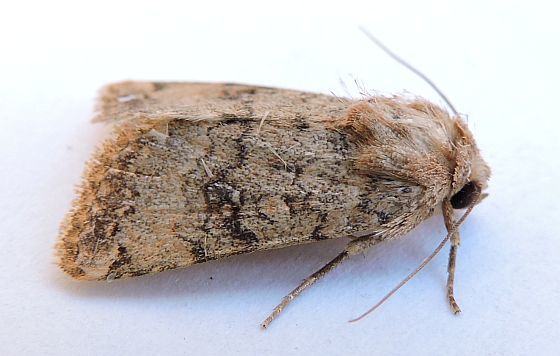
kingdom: Animalia
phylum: Arthropoda
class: Insecta
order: Lepidoptera
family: Noctuidae
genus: Nudorthodes
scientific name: Nudorthodes molino
